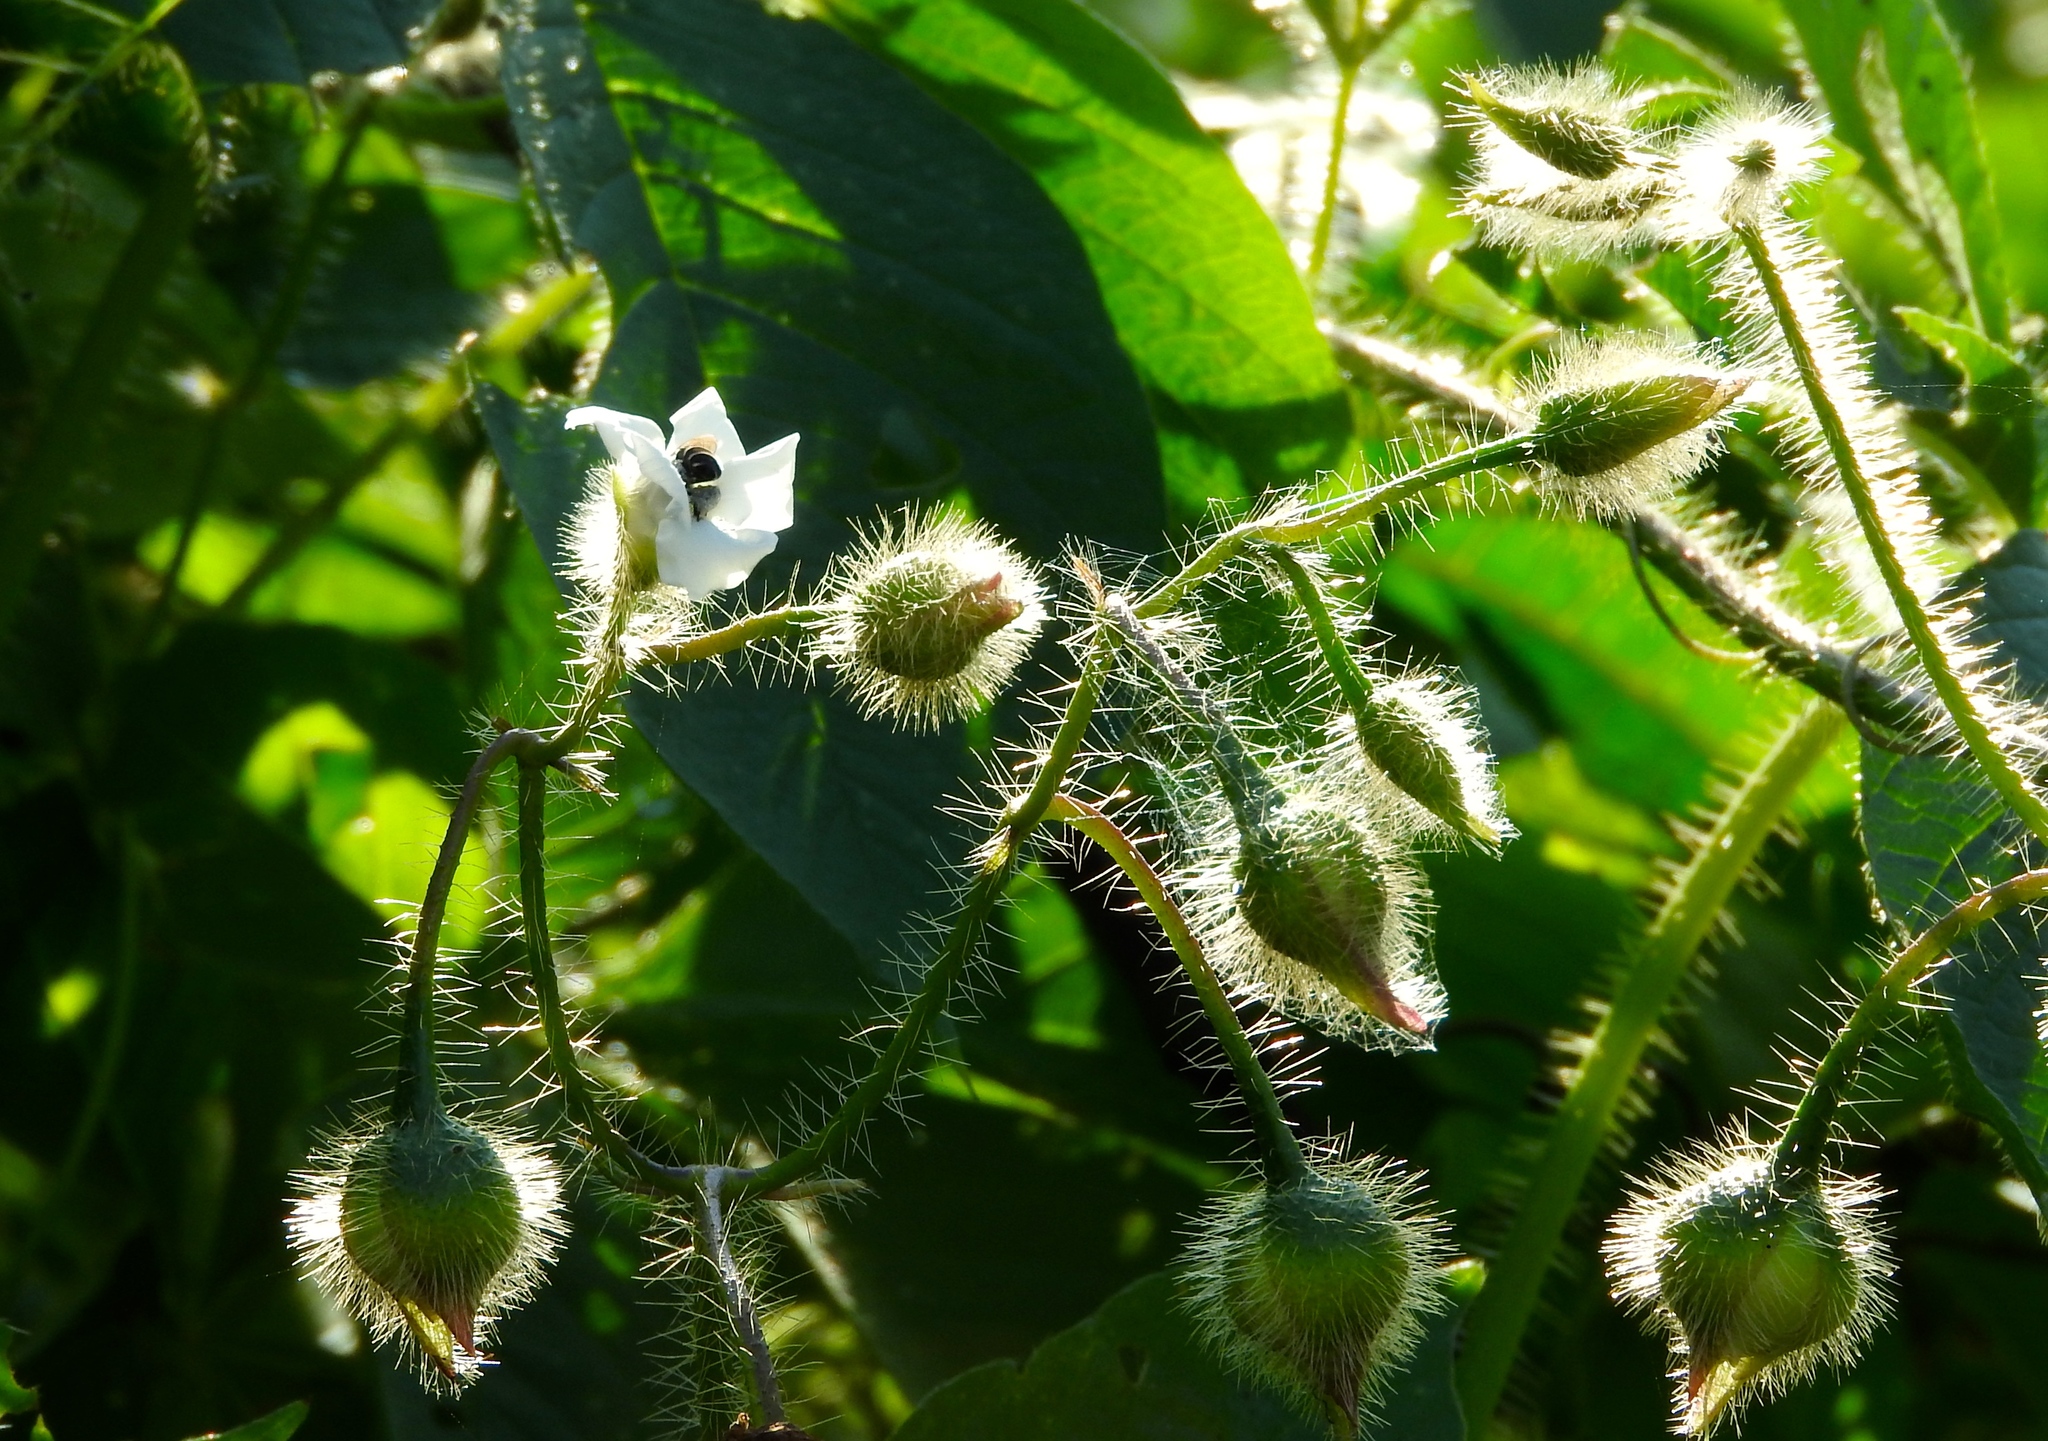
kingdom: Plantae
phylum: Tracheophyta
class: Magnoliopsida
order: Solanales
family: Convolvulaceae
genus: Distimake
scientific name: Distimake aegyptius
